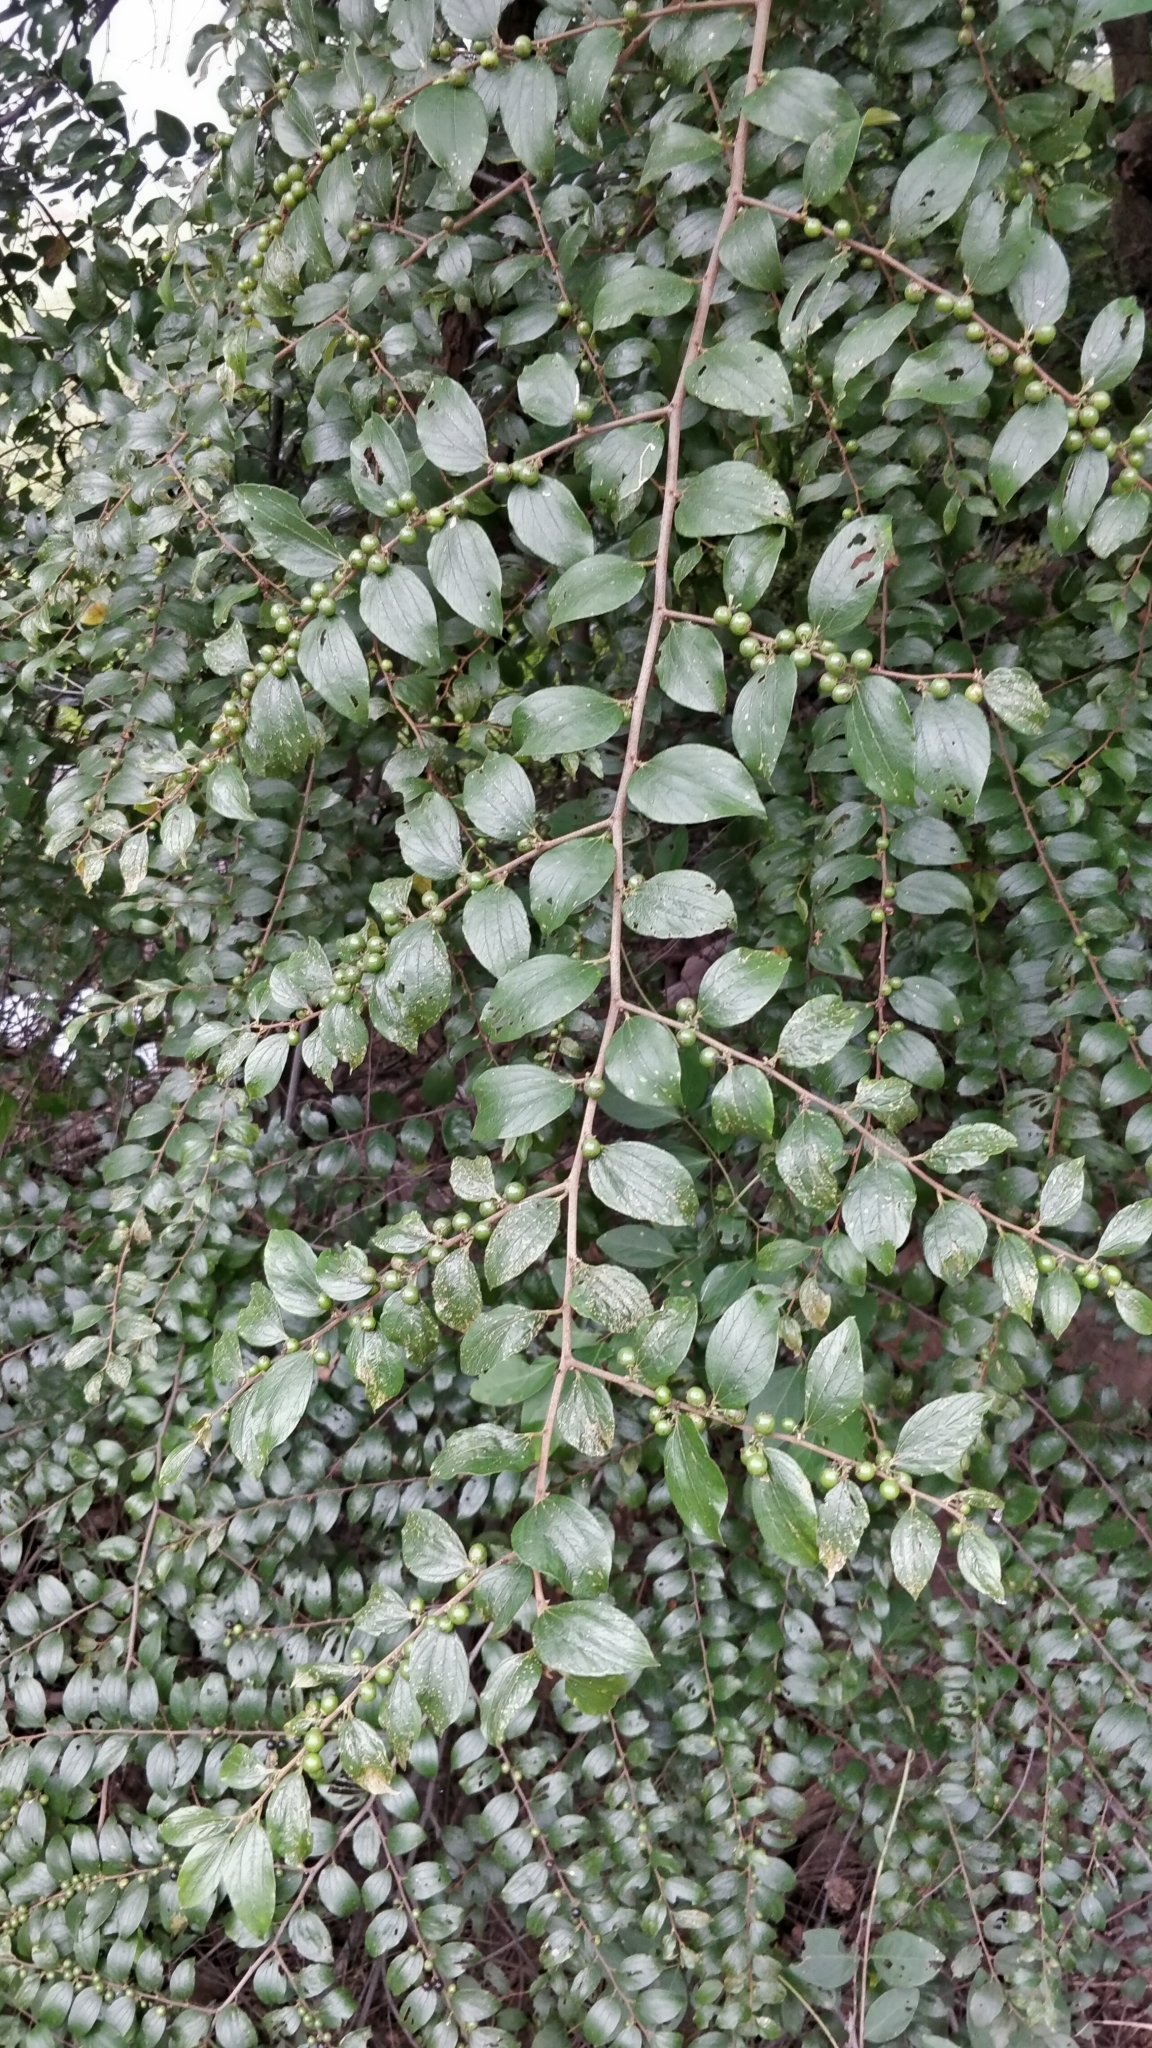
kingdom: Plantae
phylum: Tracheophyta
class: Magnoliopsida
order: Rosales
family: Rhamnaceae
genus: Ziziphus
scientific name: Ziziphus oenopolia
